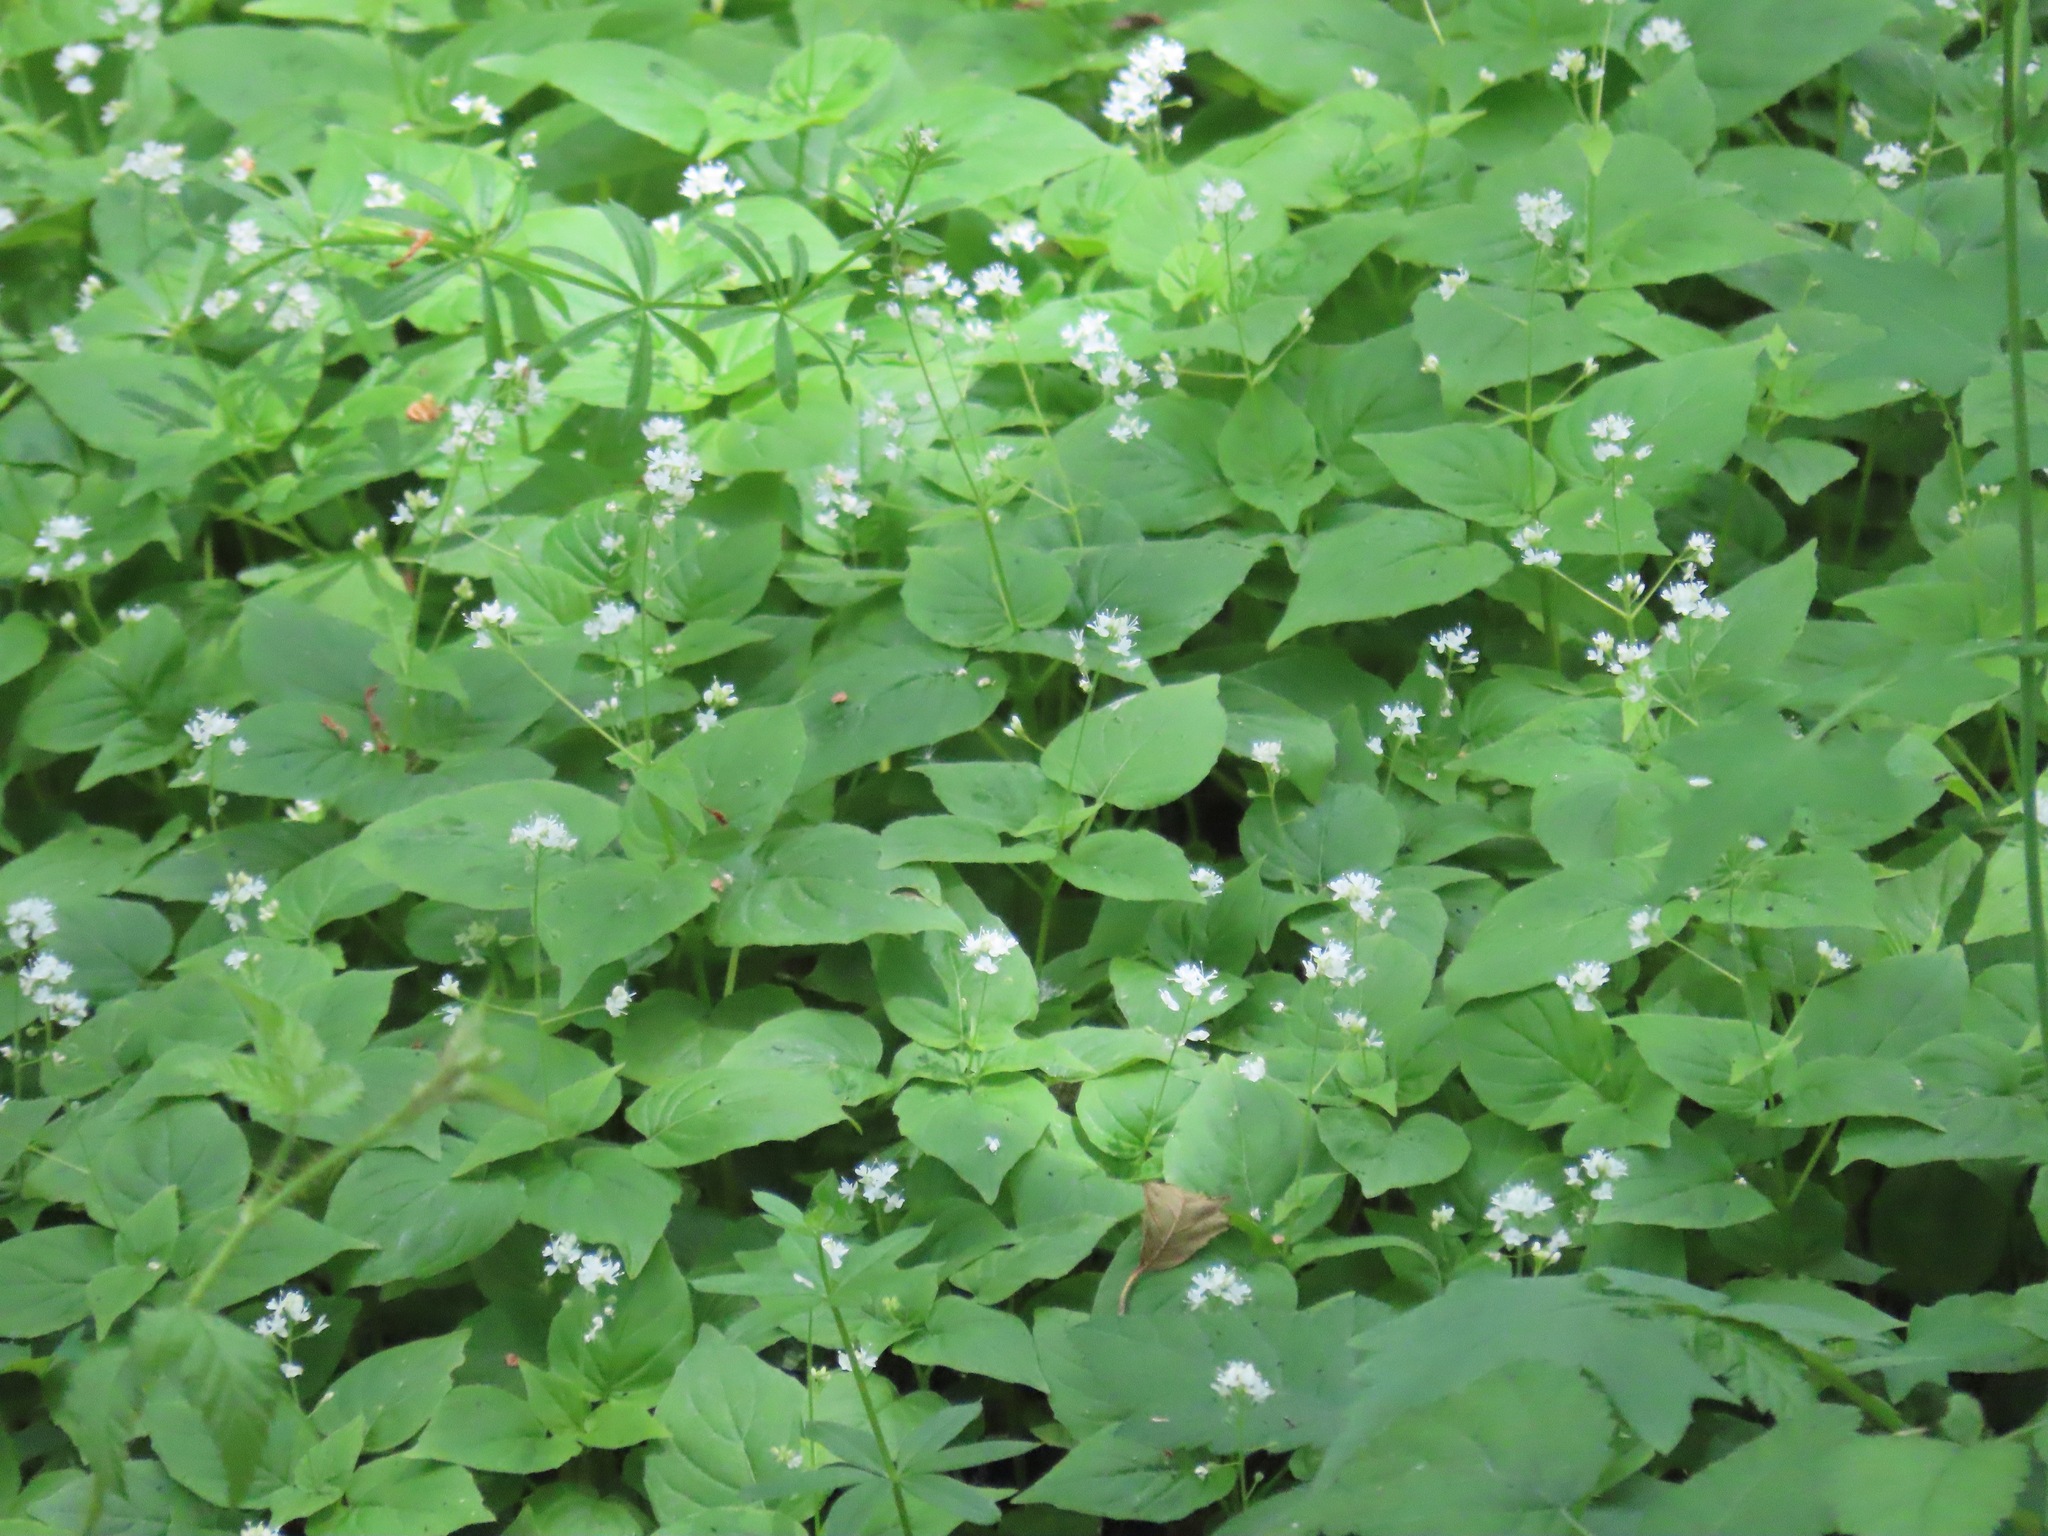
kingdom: Plantae
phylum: Tracheophyta
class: Magnoliopsida
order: Myrtales
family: Onagraceae
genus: Circaea
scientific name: Circaea alpina
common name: Alpine enchanter's-nightshade
